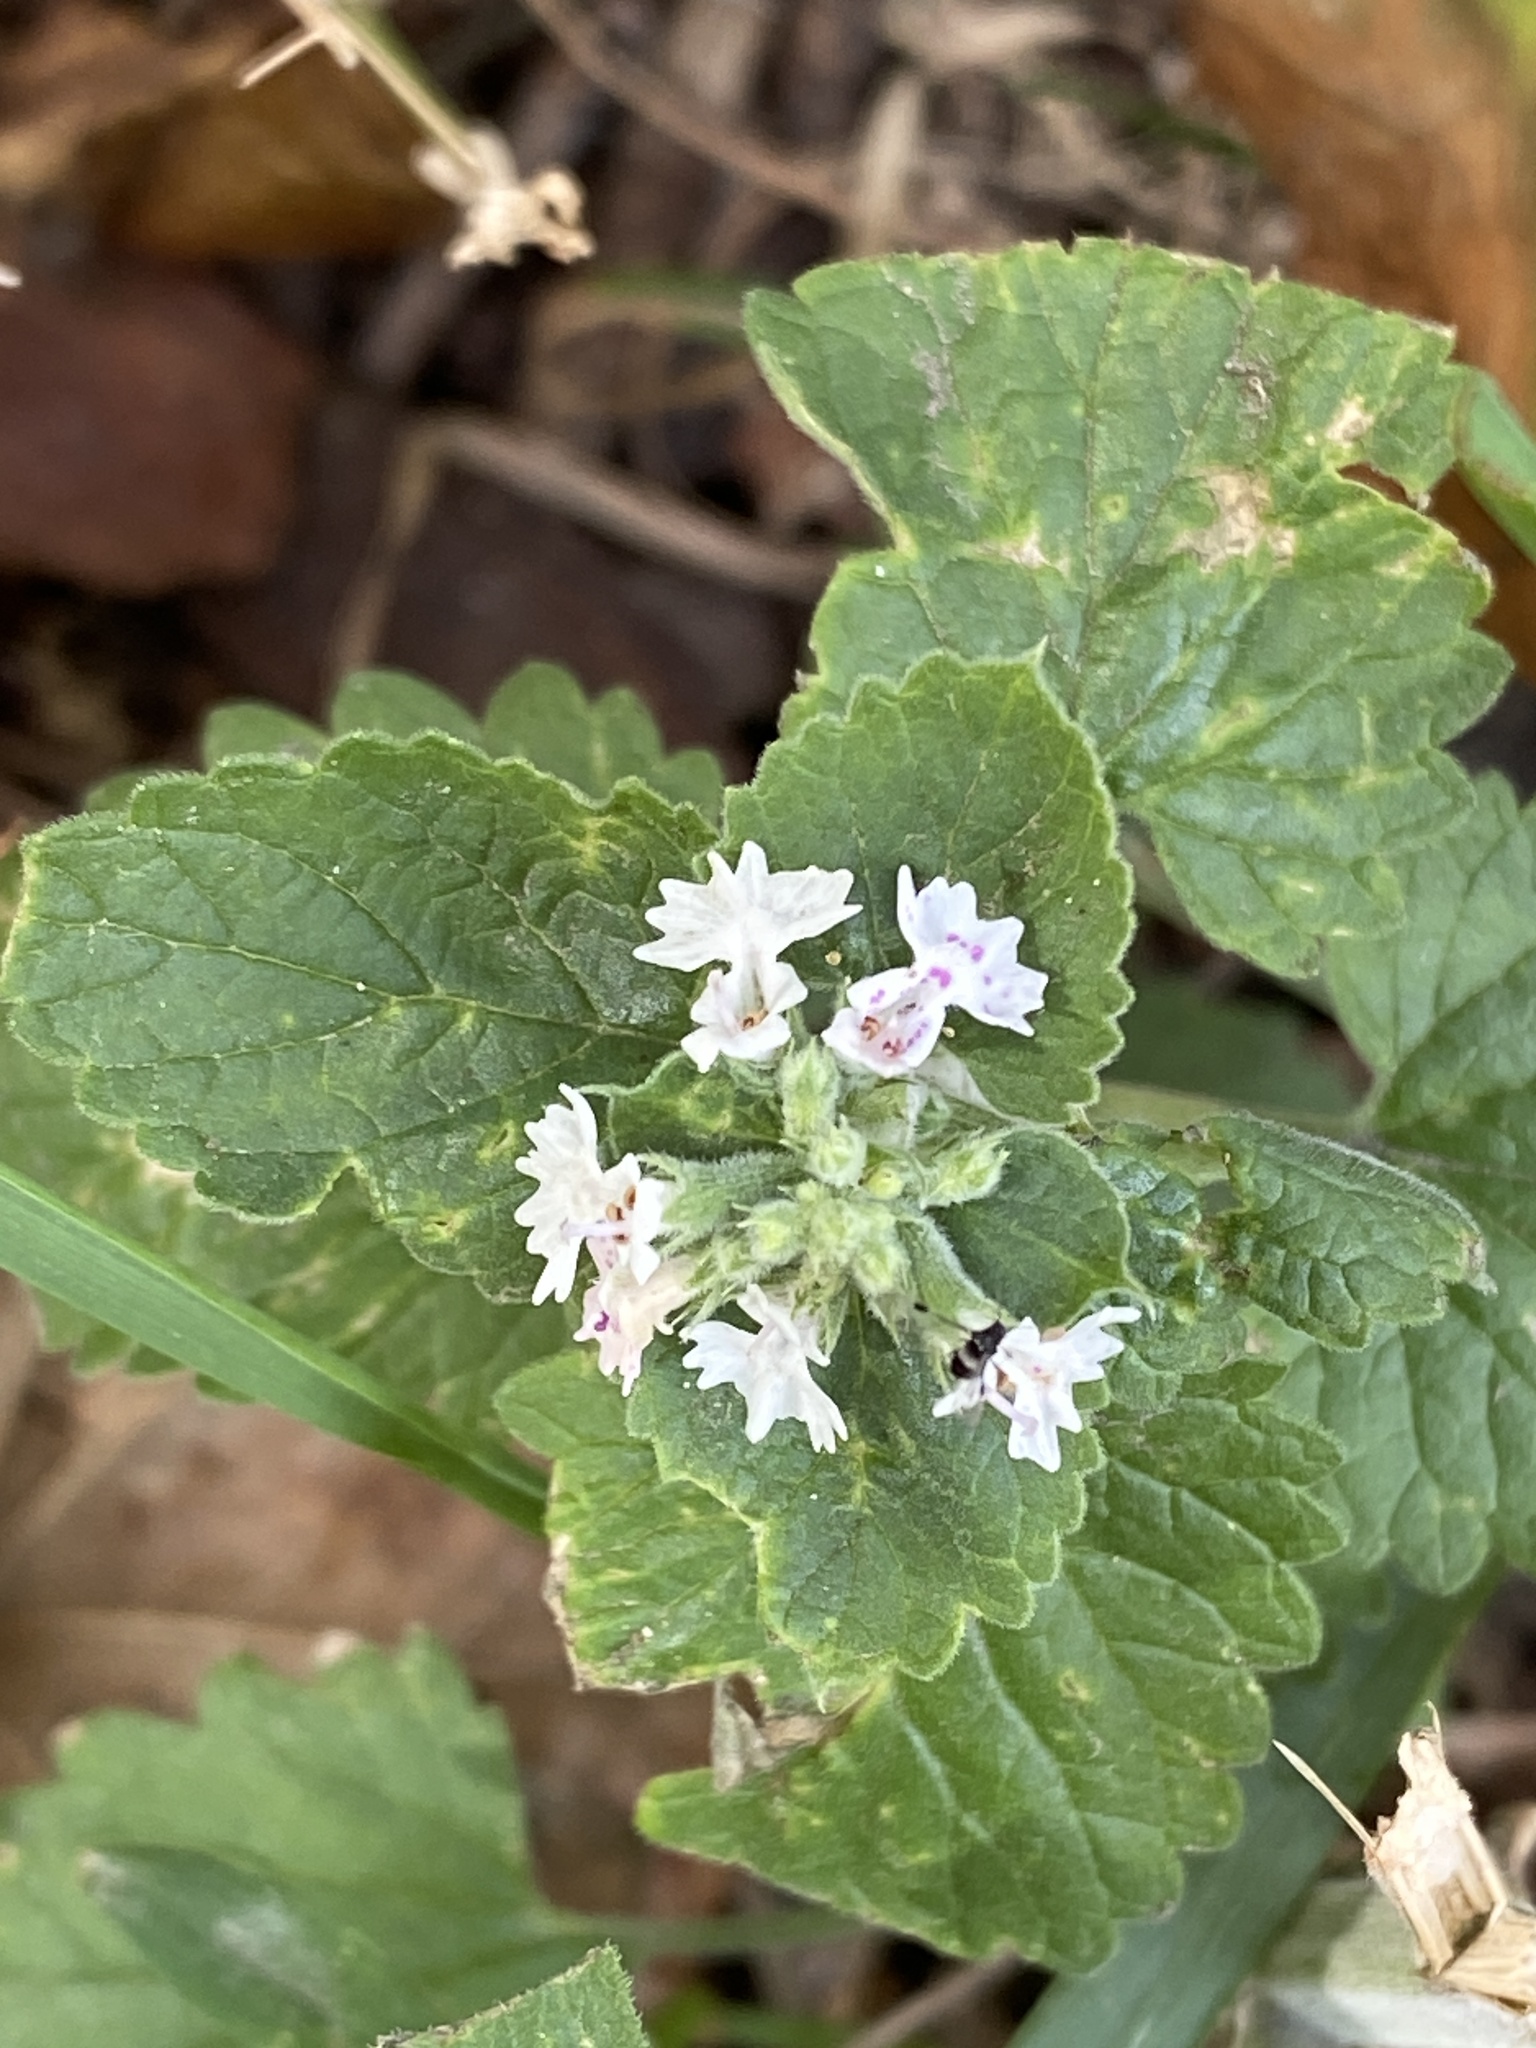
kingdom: Plantae
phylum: Tracheophyta
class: Magnoliopsida
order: Lamiales
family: Lamiaceae
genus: Nepeta
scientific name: Nepeta cataria
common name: Catnip
